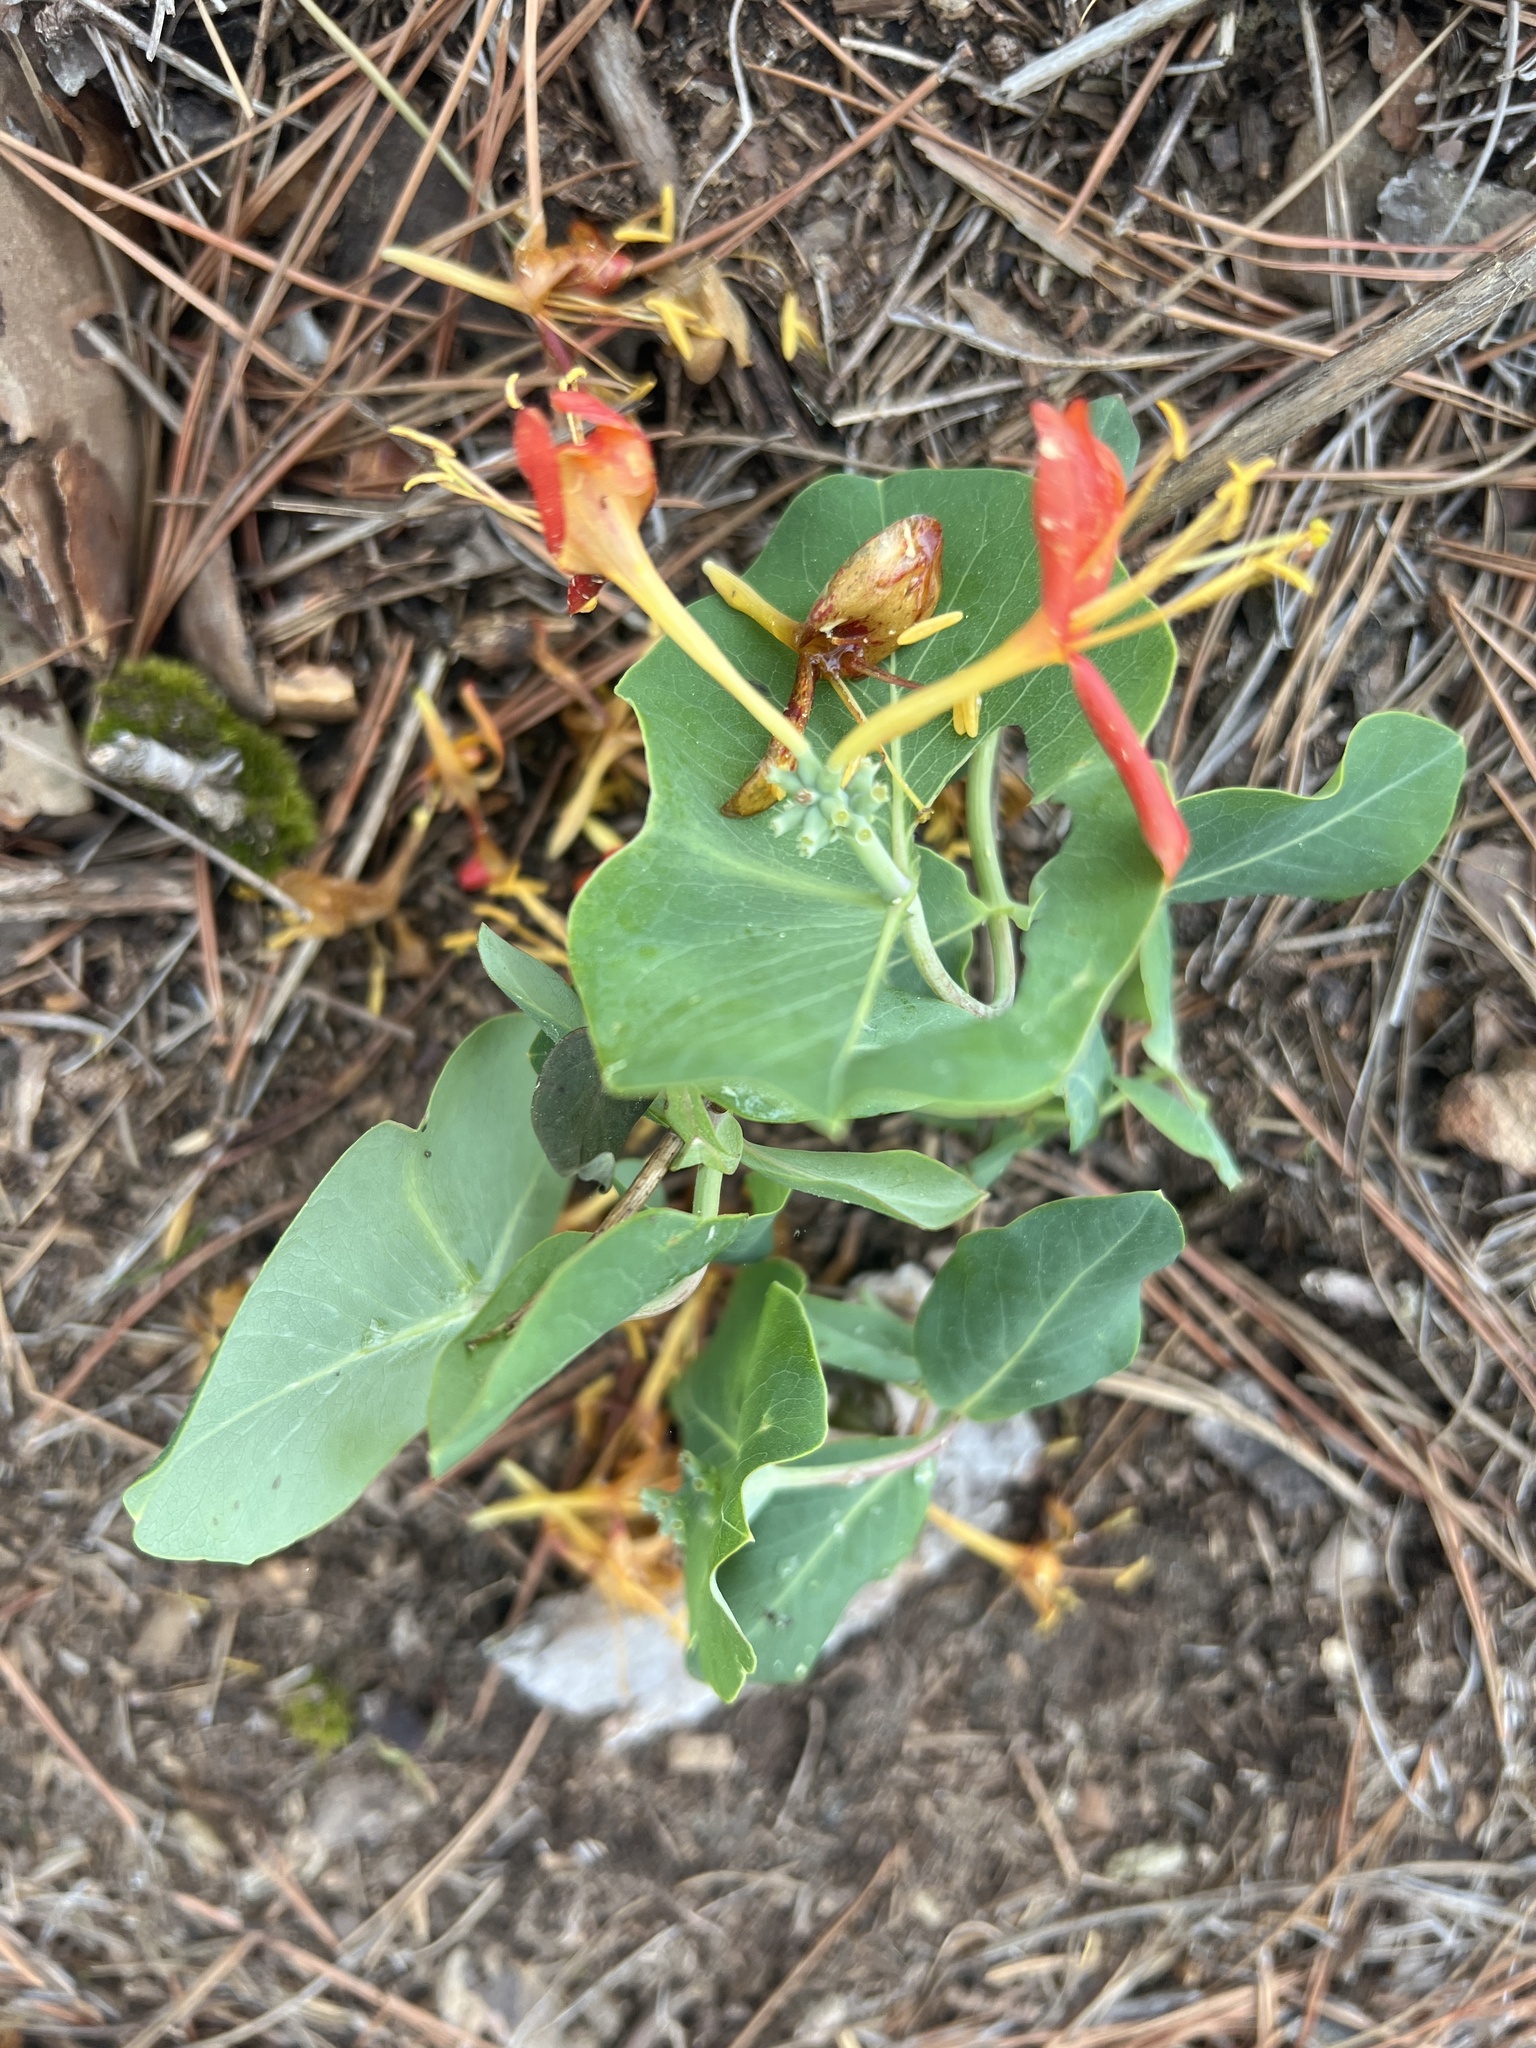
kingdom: Plantae
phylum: Tracheophyta
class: Magnoliopsida
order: Dipsacales
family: Caprifoliaceae
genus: Lonicera
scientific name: Lonicera flava
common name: Yellow honeysuckle
